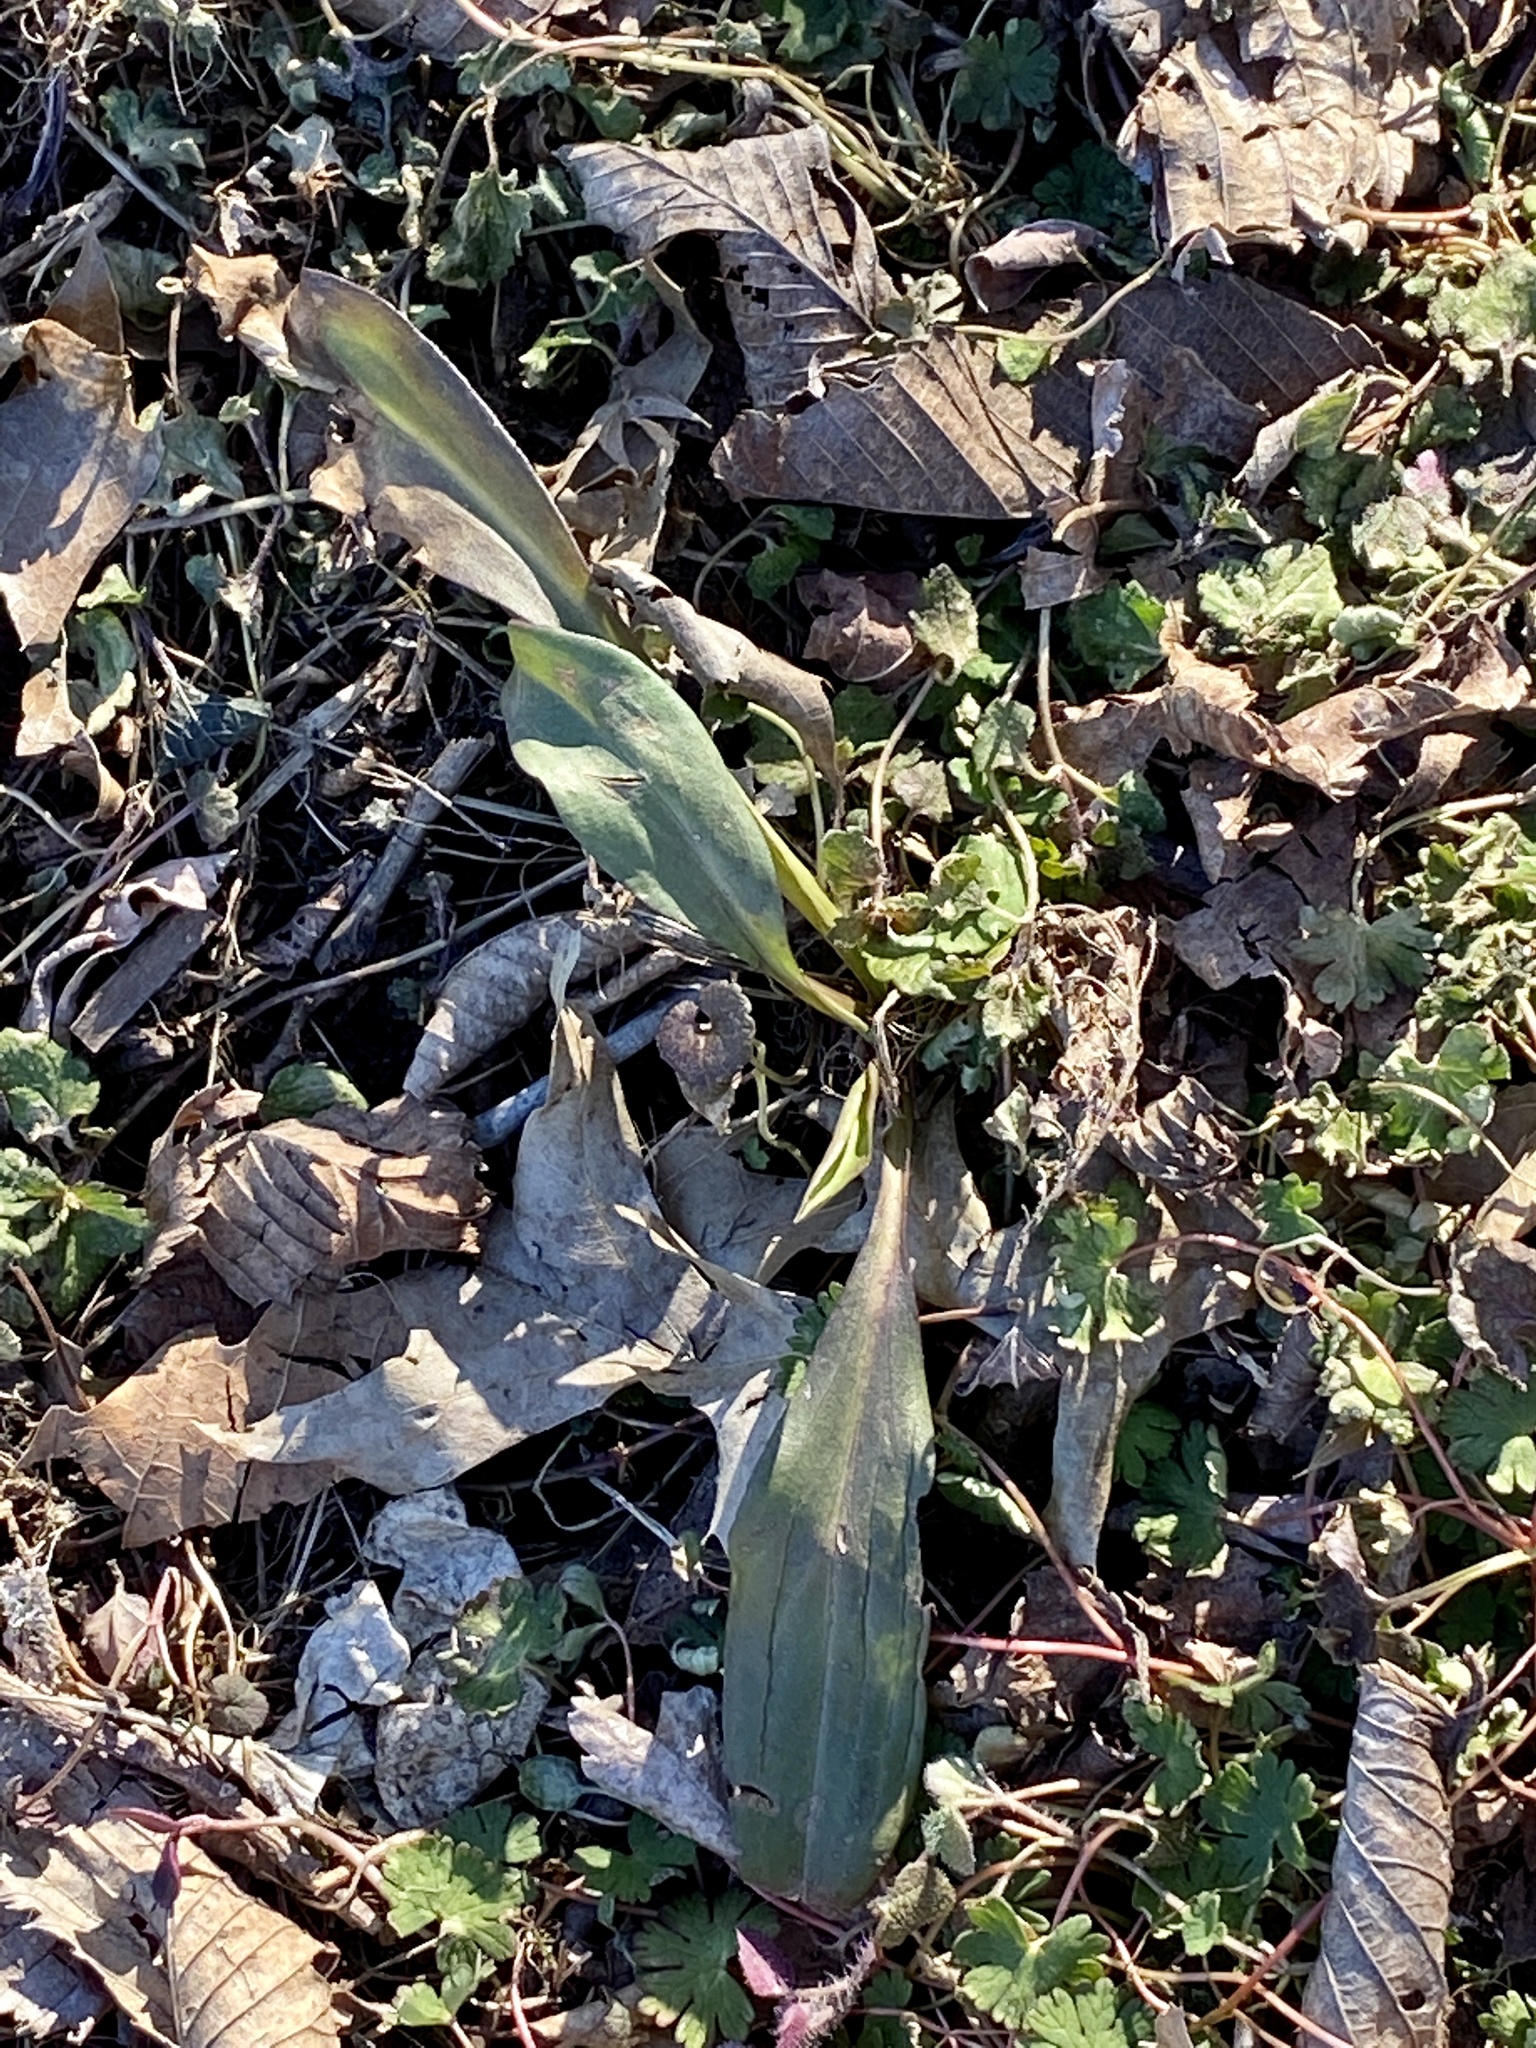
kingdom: Plantae
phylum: Tracheophyta
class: Magnoliopsida
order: Asterales
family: Asteraceae
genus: Solidago
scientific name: Solidago sempervirens
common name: Salt-marsh goldenrod
